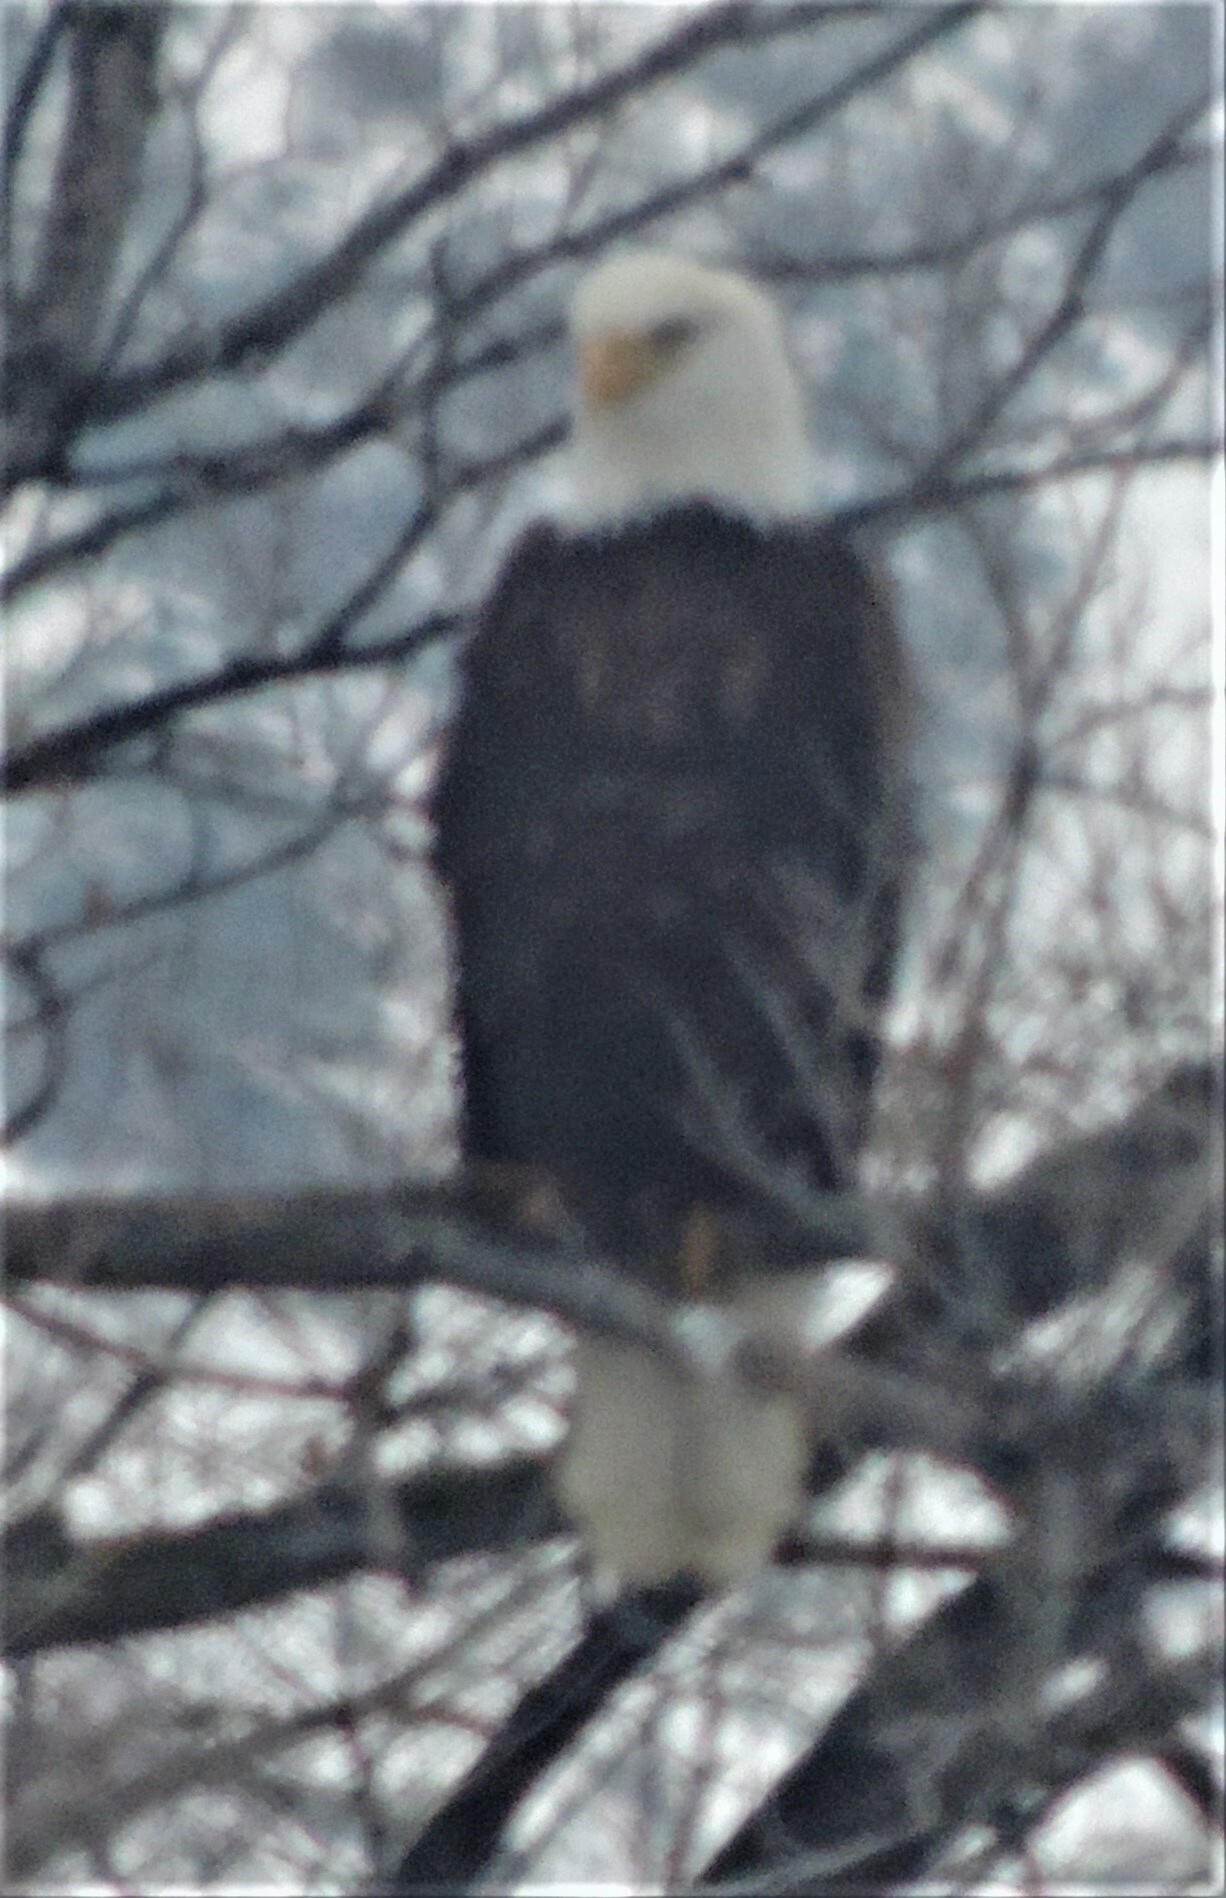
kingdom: Animalia
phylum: Chordata
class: Aves
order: Accipitriformes
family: Accipitridae
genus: Haliaeetus
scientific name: Haliaeetus leucocephalus
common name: Bald eagle
